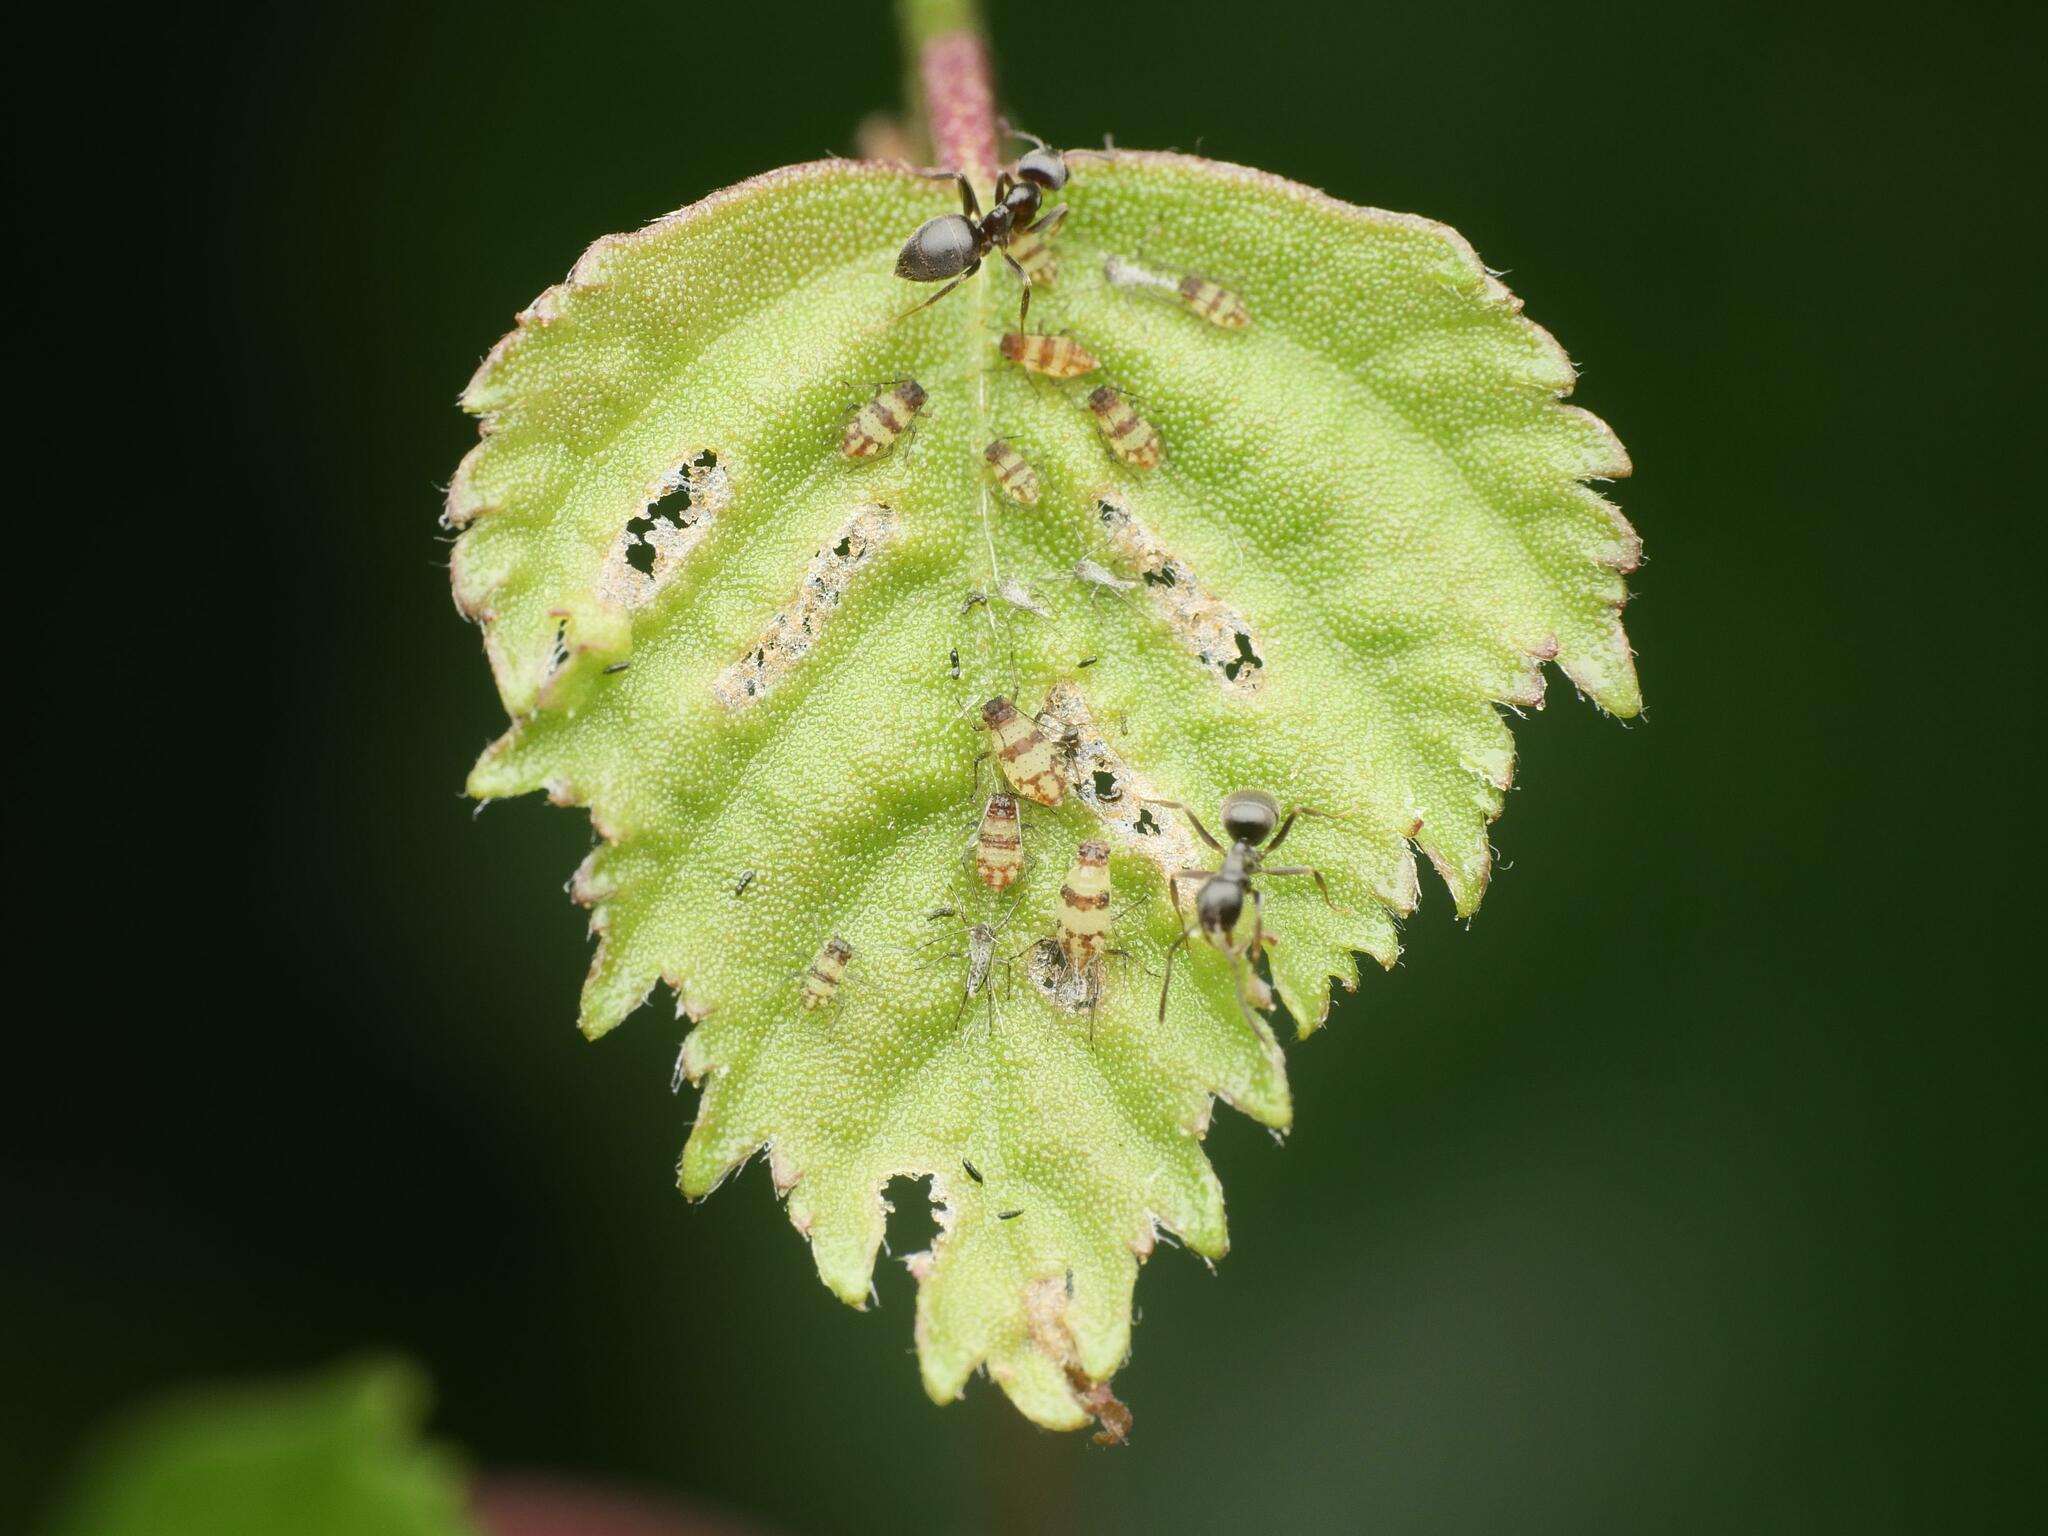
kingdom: Animalia
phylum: Arthropoda
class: Insecta
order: Hemiptera
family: Aphididae
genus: Callipterinella
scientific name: Callipterinella tuberculata
